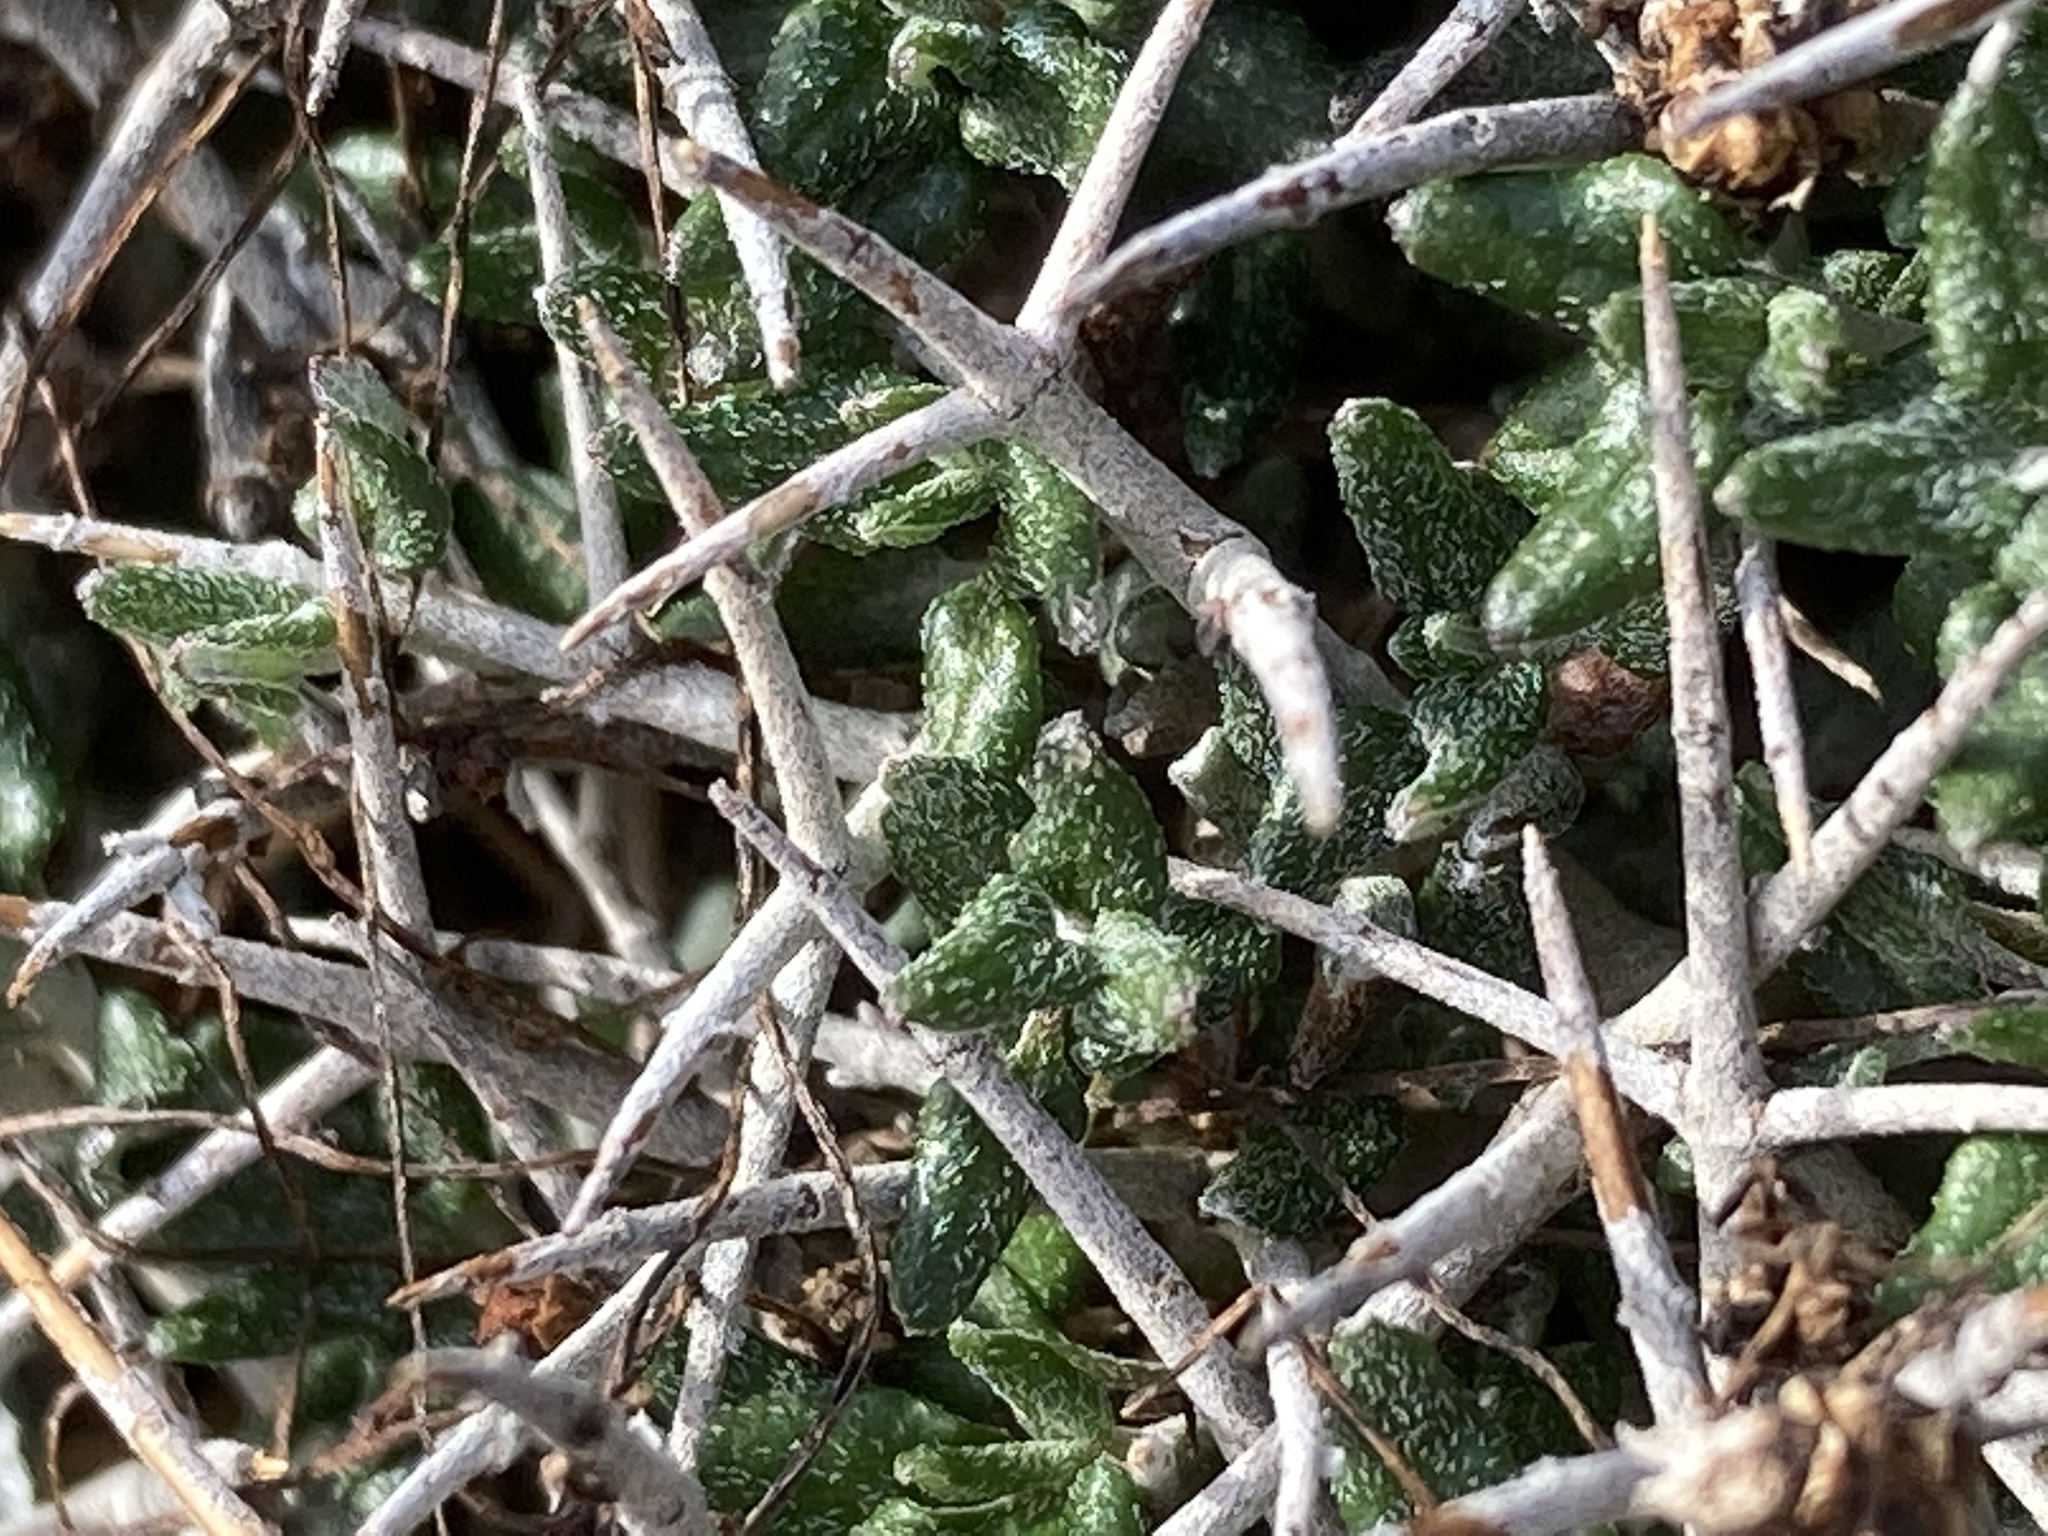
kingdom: Plantae
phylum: Tracheophyta
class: Magnoliopsida
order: Lamiales
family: Lamiaceae
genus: Teucrium
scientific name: Teucrium balearicum
